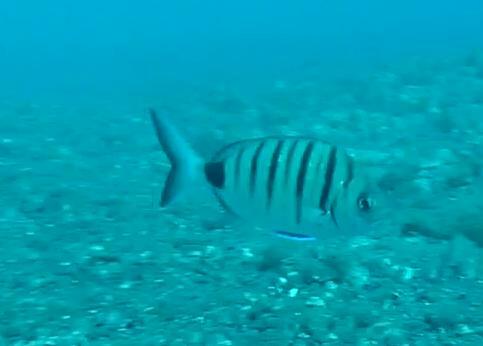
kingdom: Animalia
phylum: Chordata
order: Perciformes
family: Sparidae
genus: Diplodus
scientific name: Diplodus cadenati
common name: Moroccan white seabream
